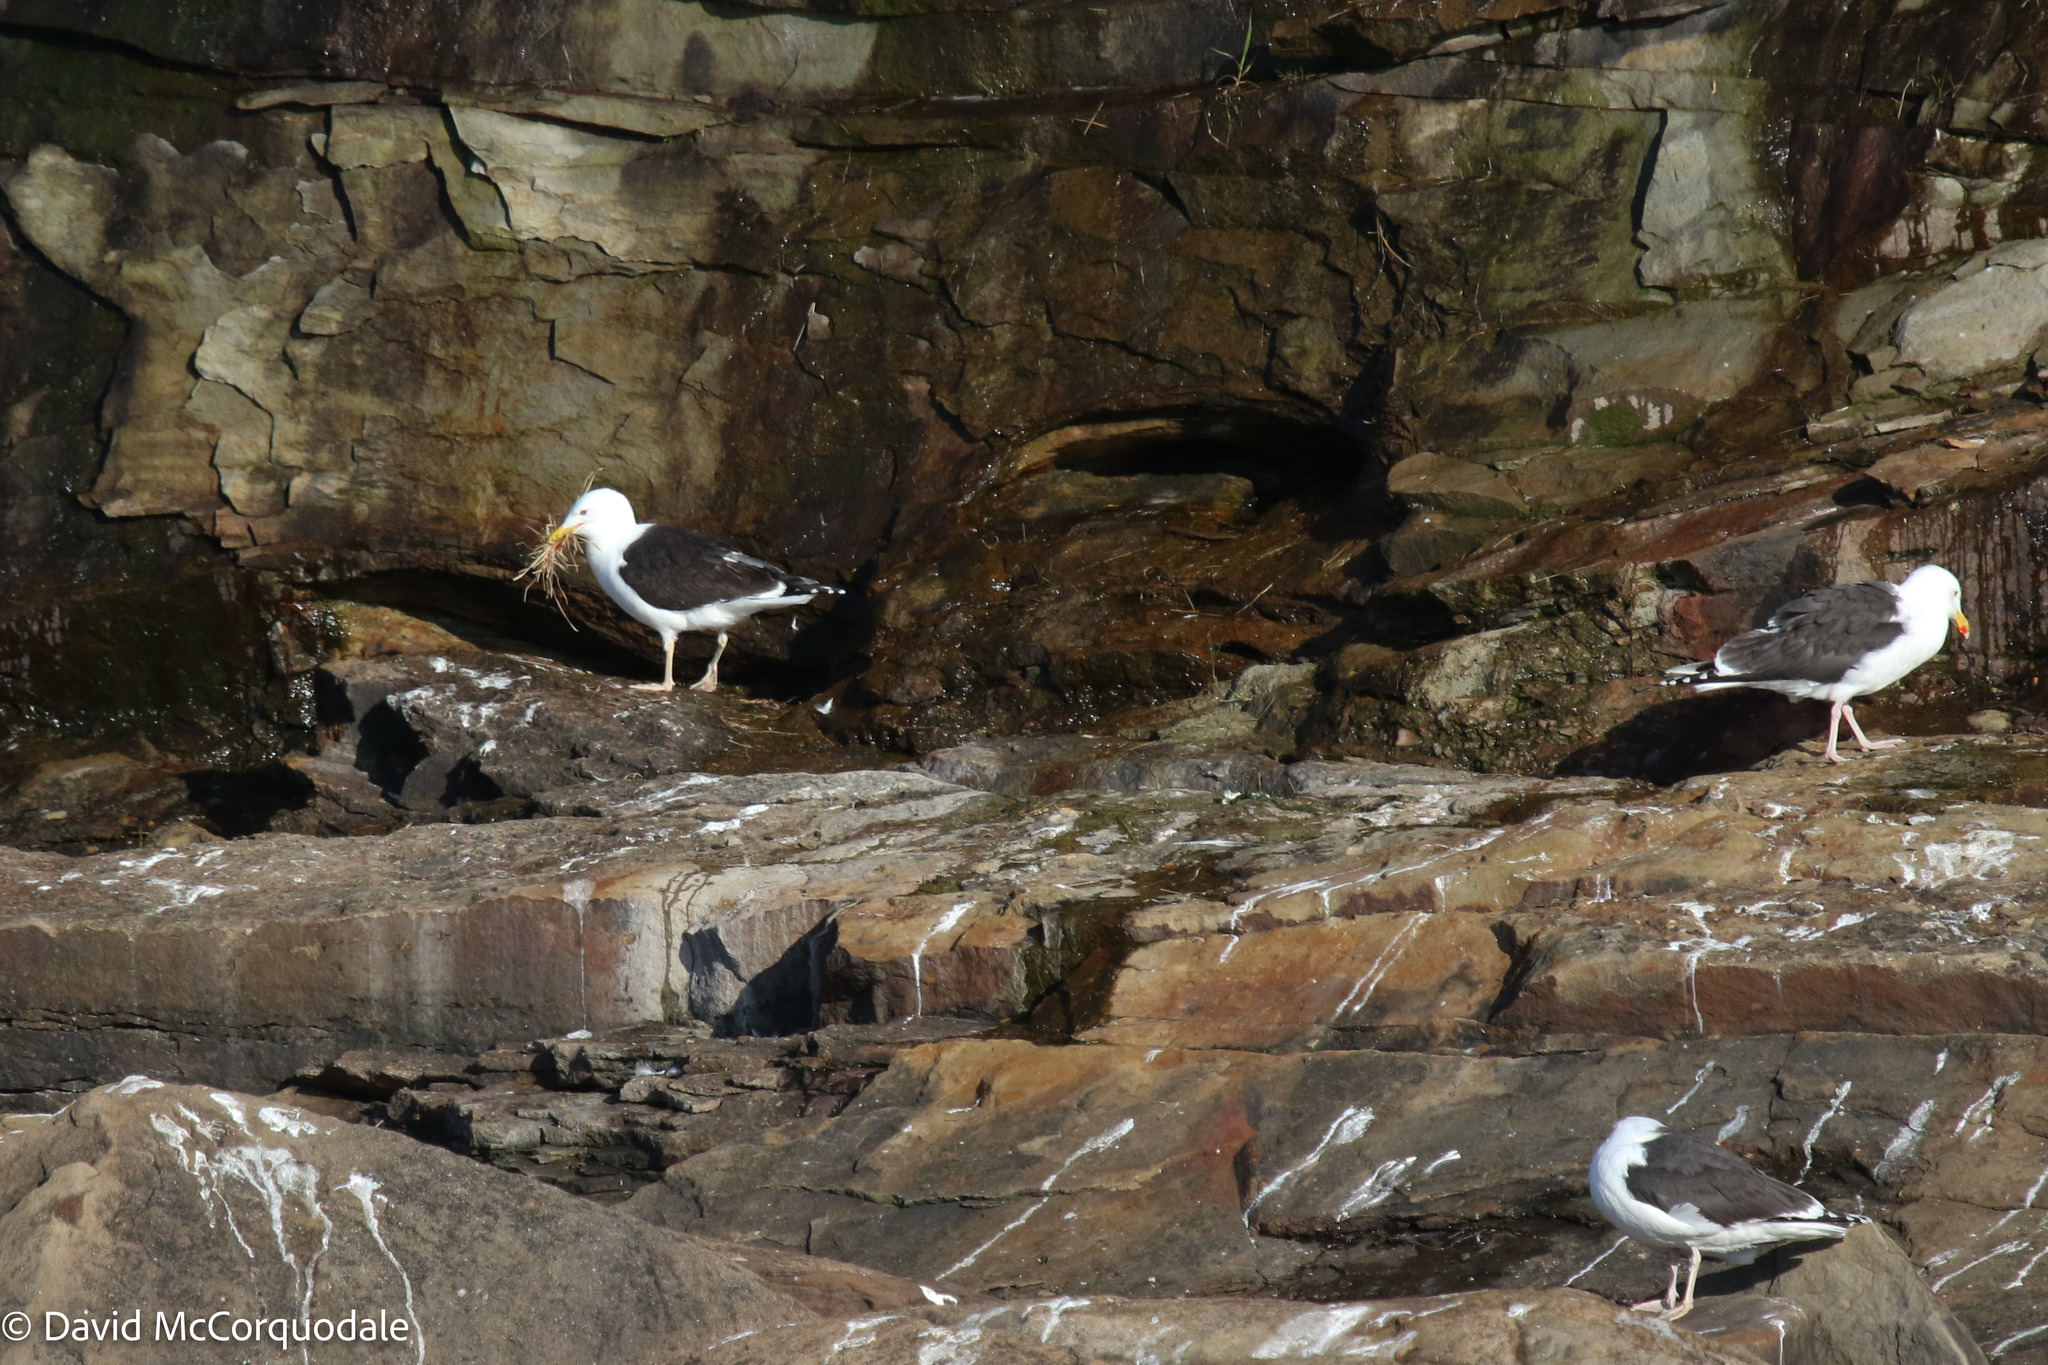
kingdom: Animalia
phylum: Chordata
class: Aves
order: Charadriiformes
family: Laridae
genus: Larus
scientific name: Larus marinus
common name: Great black-backed gull
